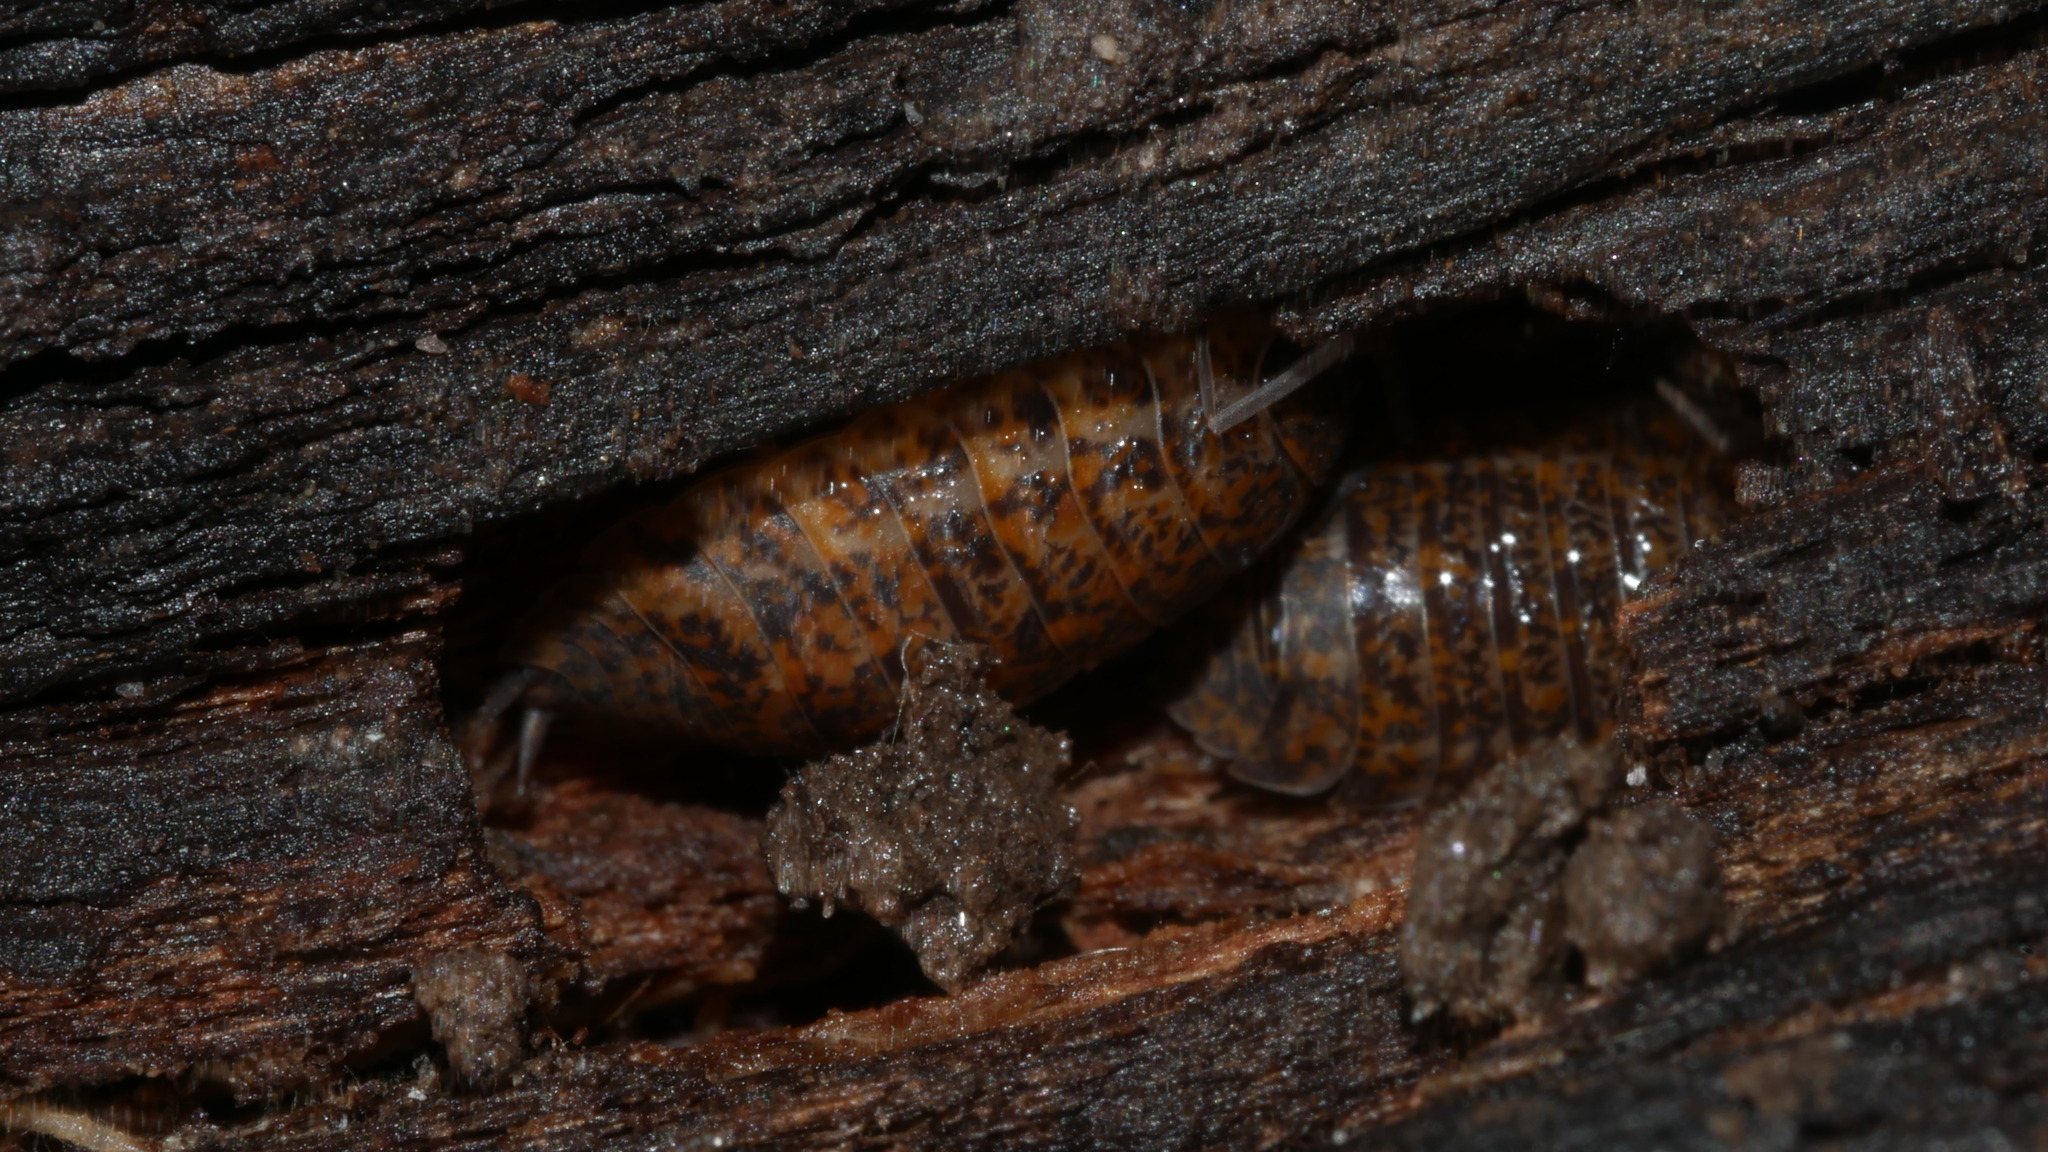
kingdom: Animalia
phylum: Arthropoda
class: Malacostraca
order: Isopoda
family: Trachelipodidae
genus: Trachelipus
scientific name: Trachelipus rathkii
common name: Isopod
